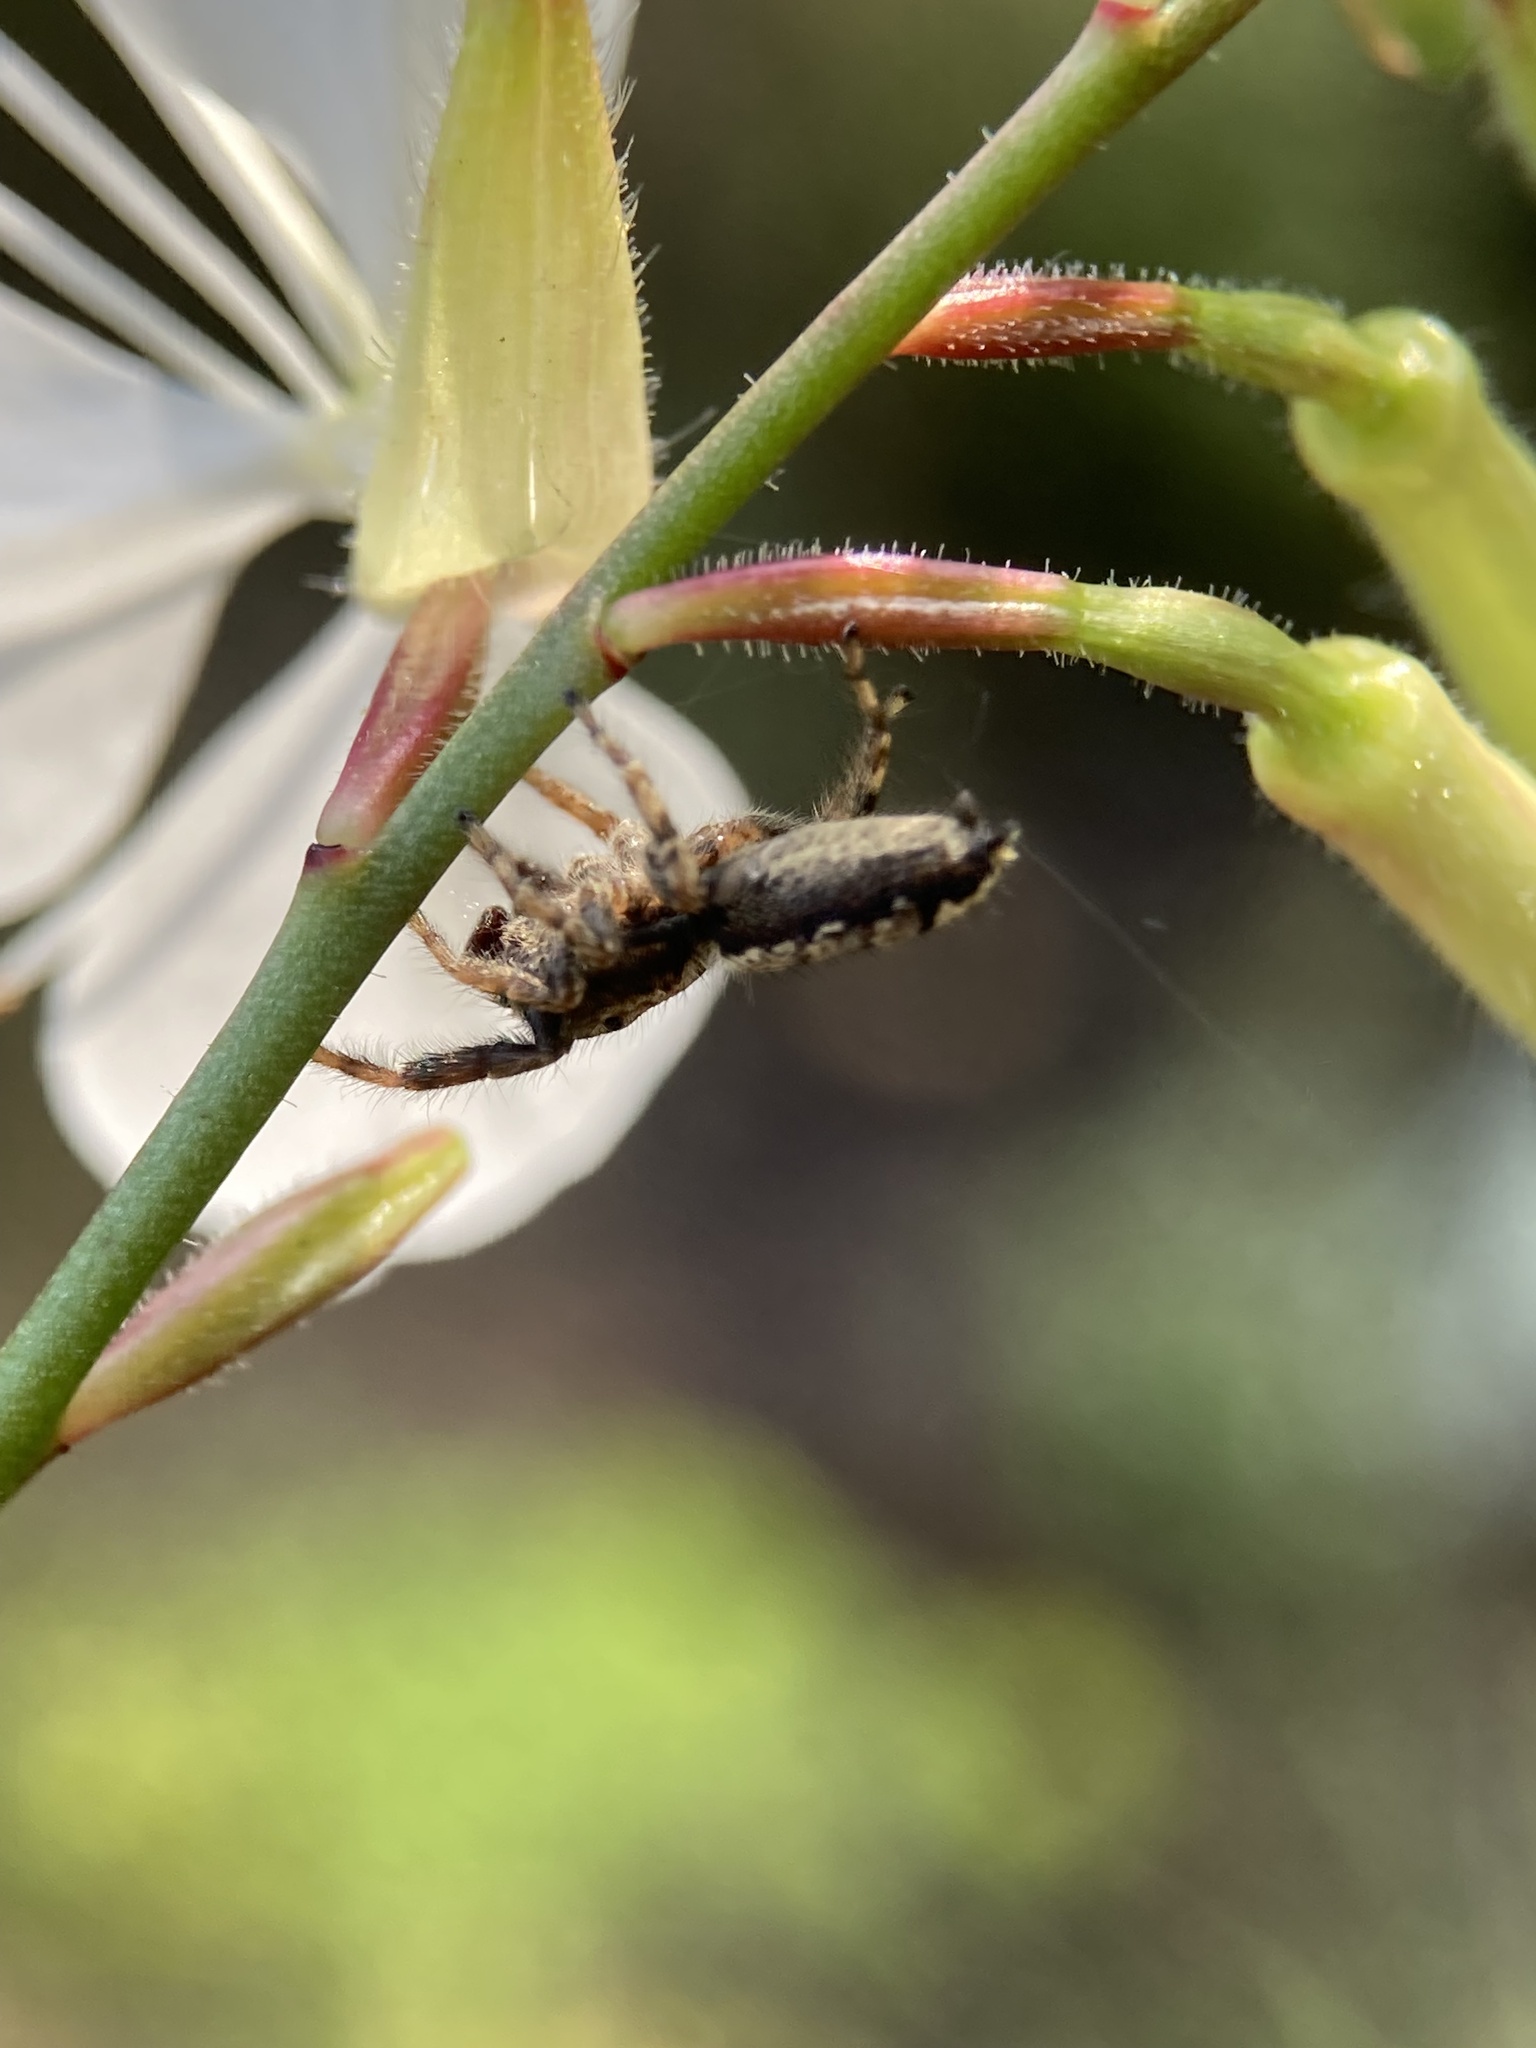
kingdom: Animalia
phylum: Arthropoda
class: Arachnida
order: Araneae
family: Salticidae
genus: Marpissa
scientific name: Marpissa muscosa
